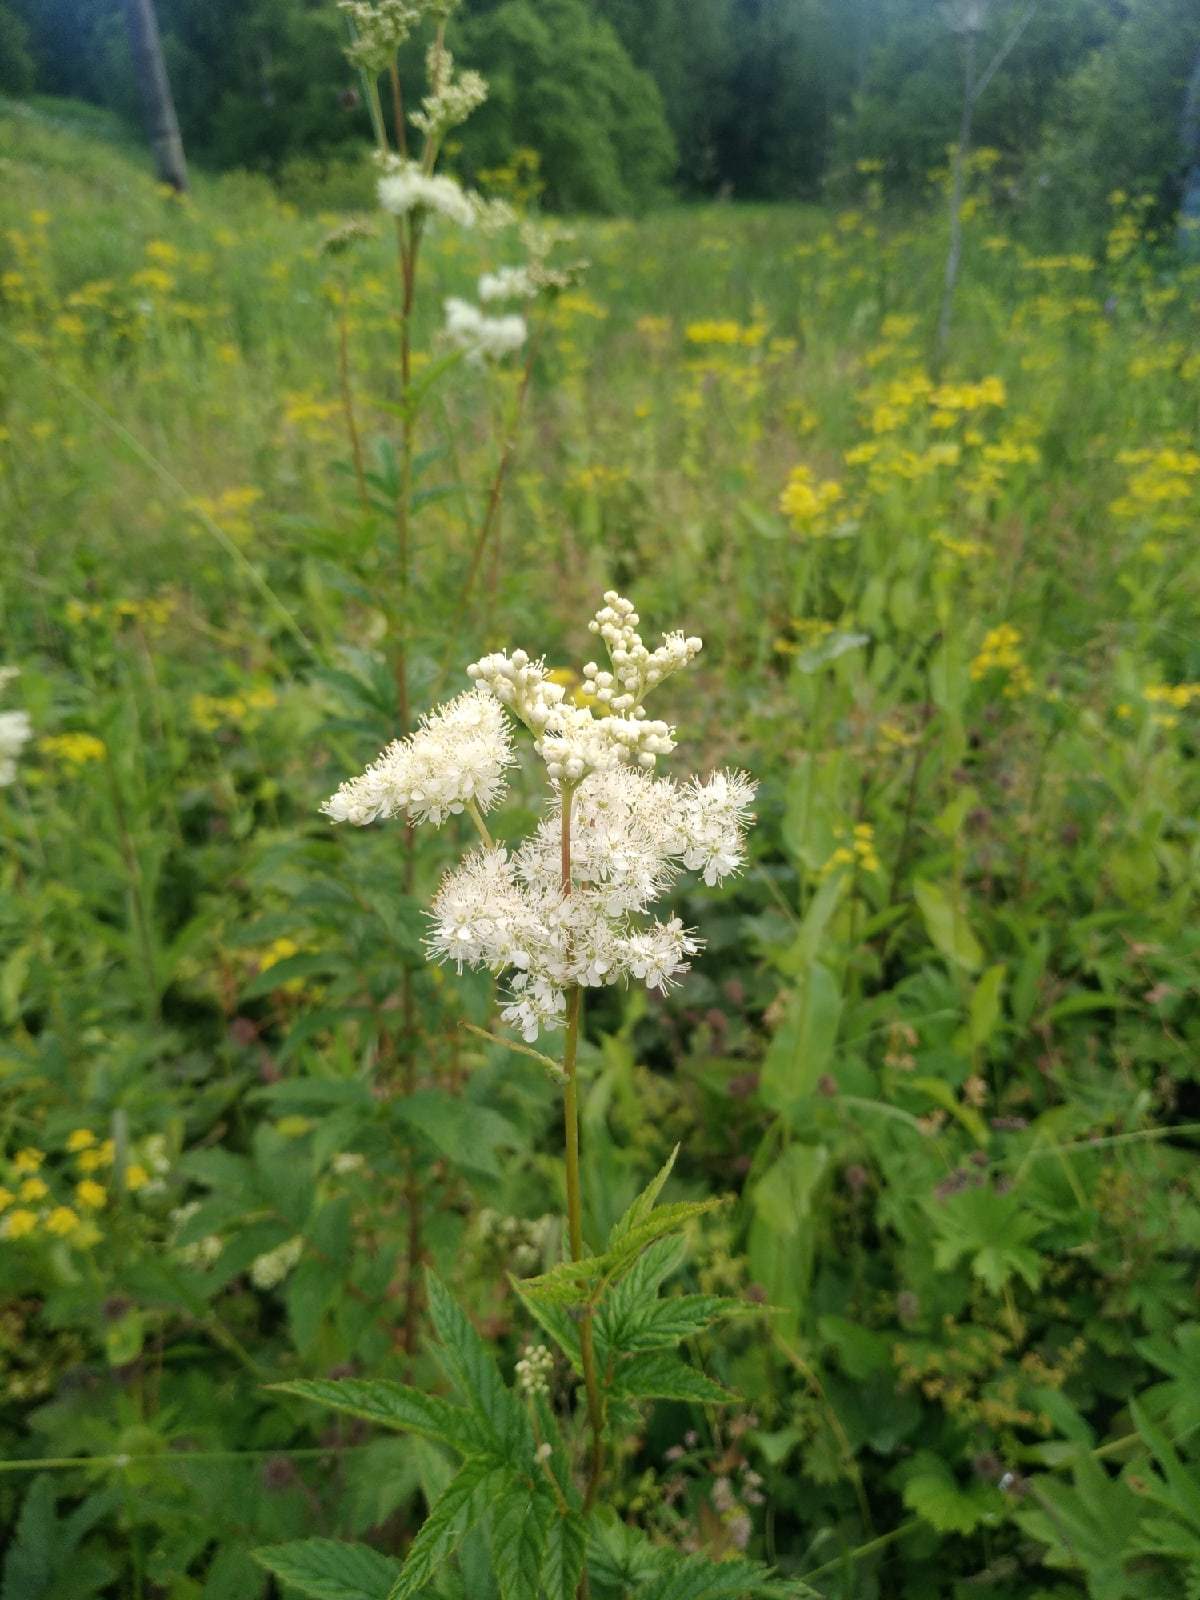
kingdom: Plantae
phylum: Tracheophyta
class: Magnoliopsida
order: Rosales
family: Rosaceae
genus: Filipendula
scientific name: Filipendula ulmaria
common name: Meadowsweet
